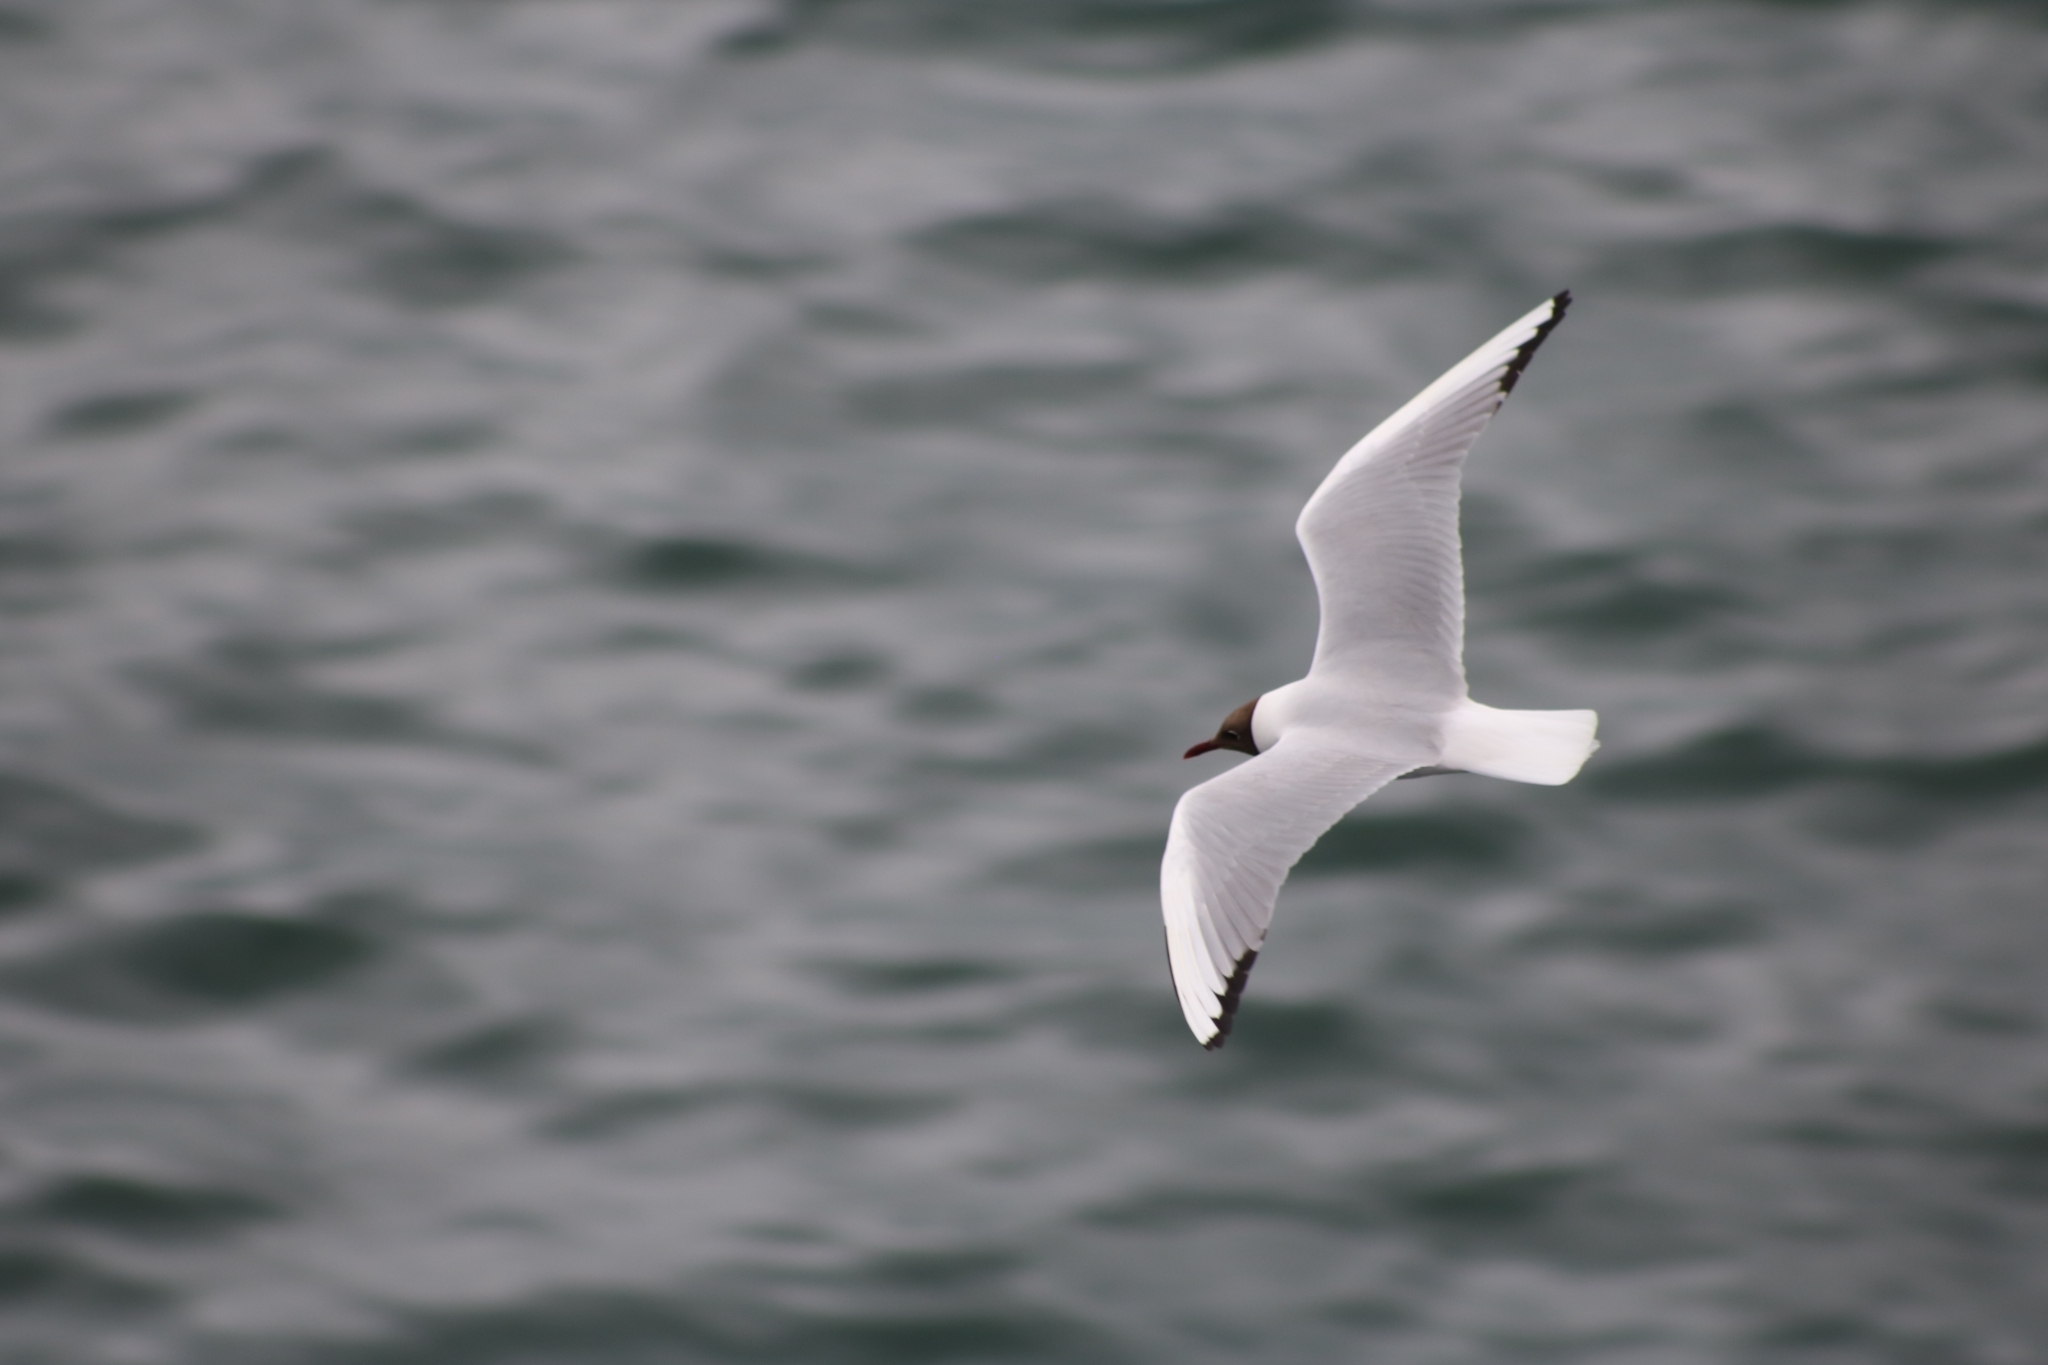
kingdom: Animalia
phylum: Chordata
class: Aves
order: Charadriiformes
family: Laridae
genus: Chroicocephalus
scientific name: Chroicocephalus ridibundus
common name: Black-headed gull
